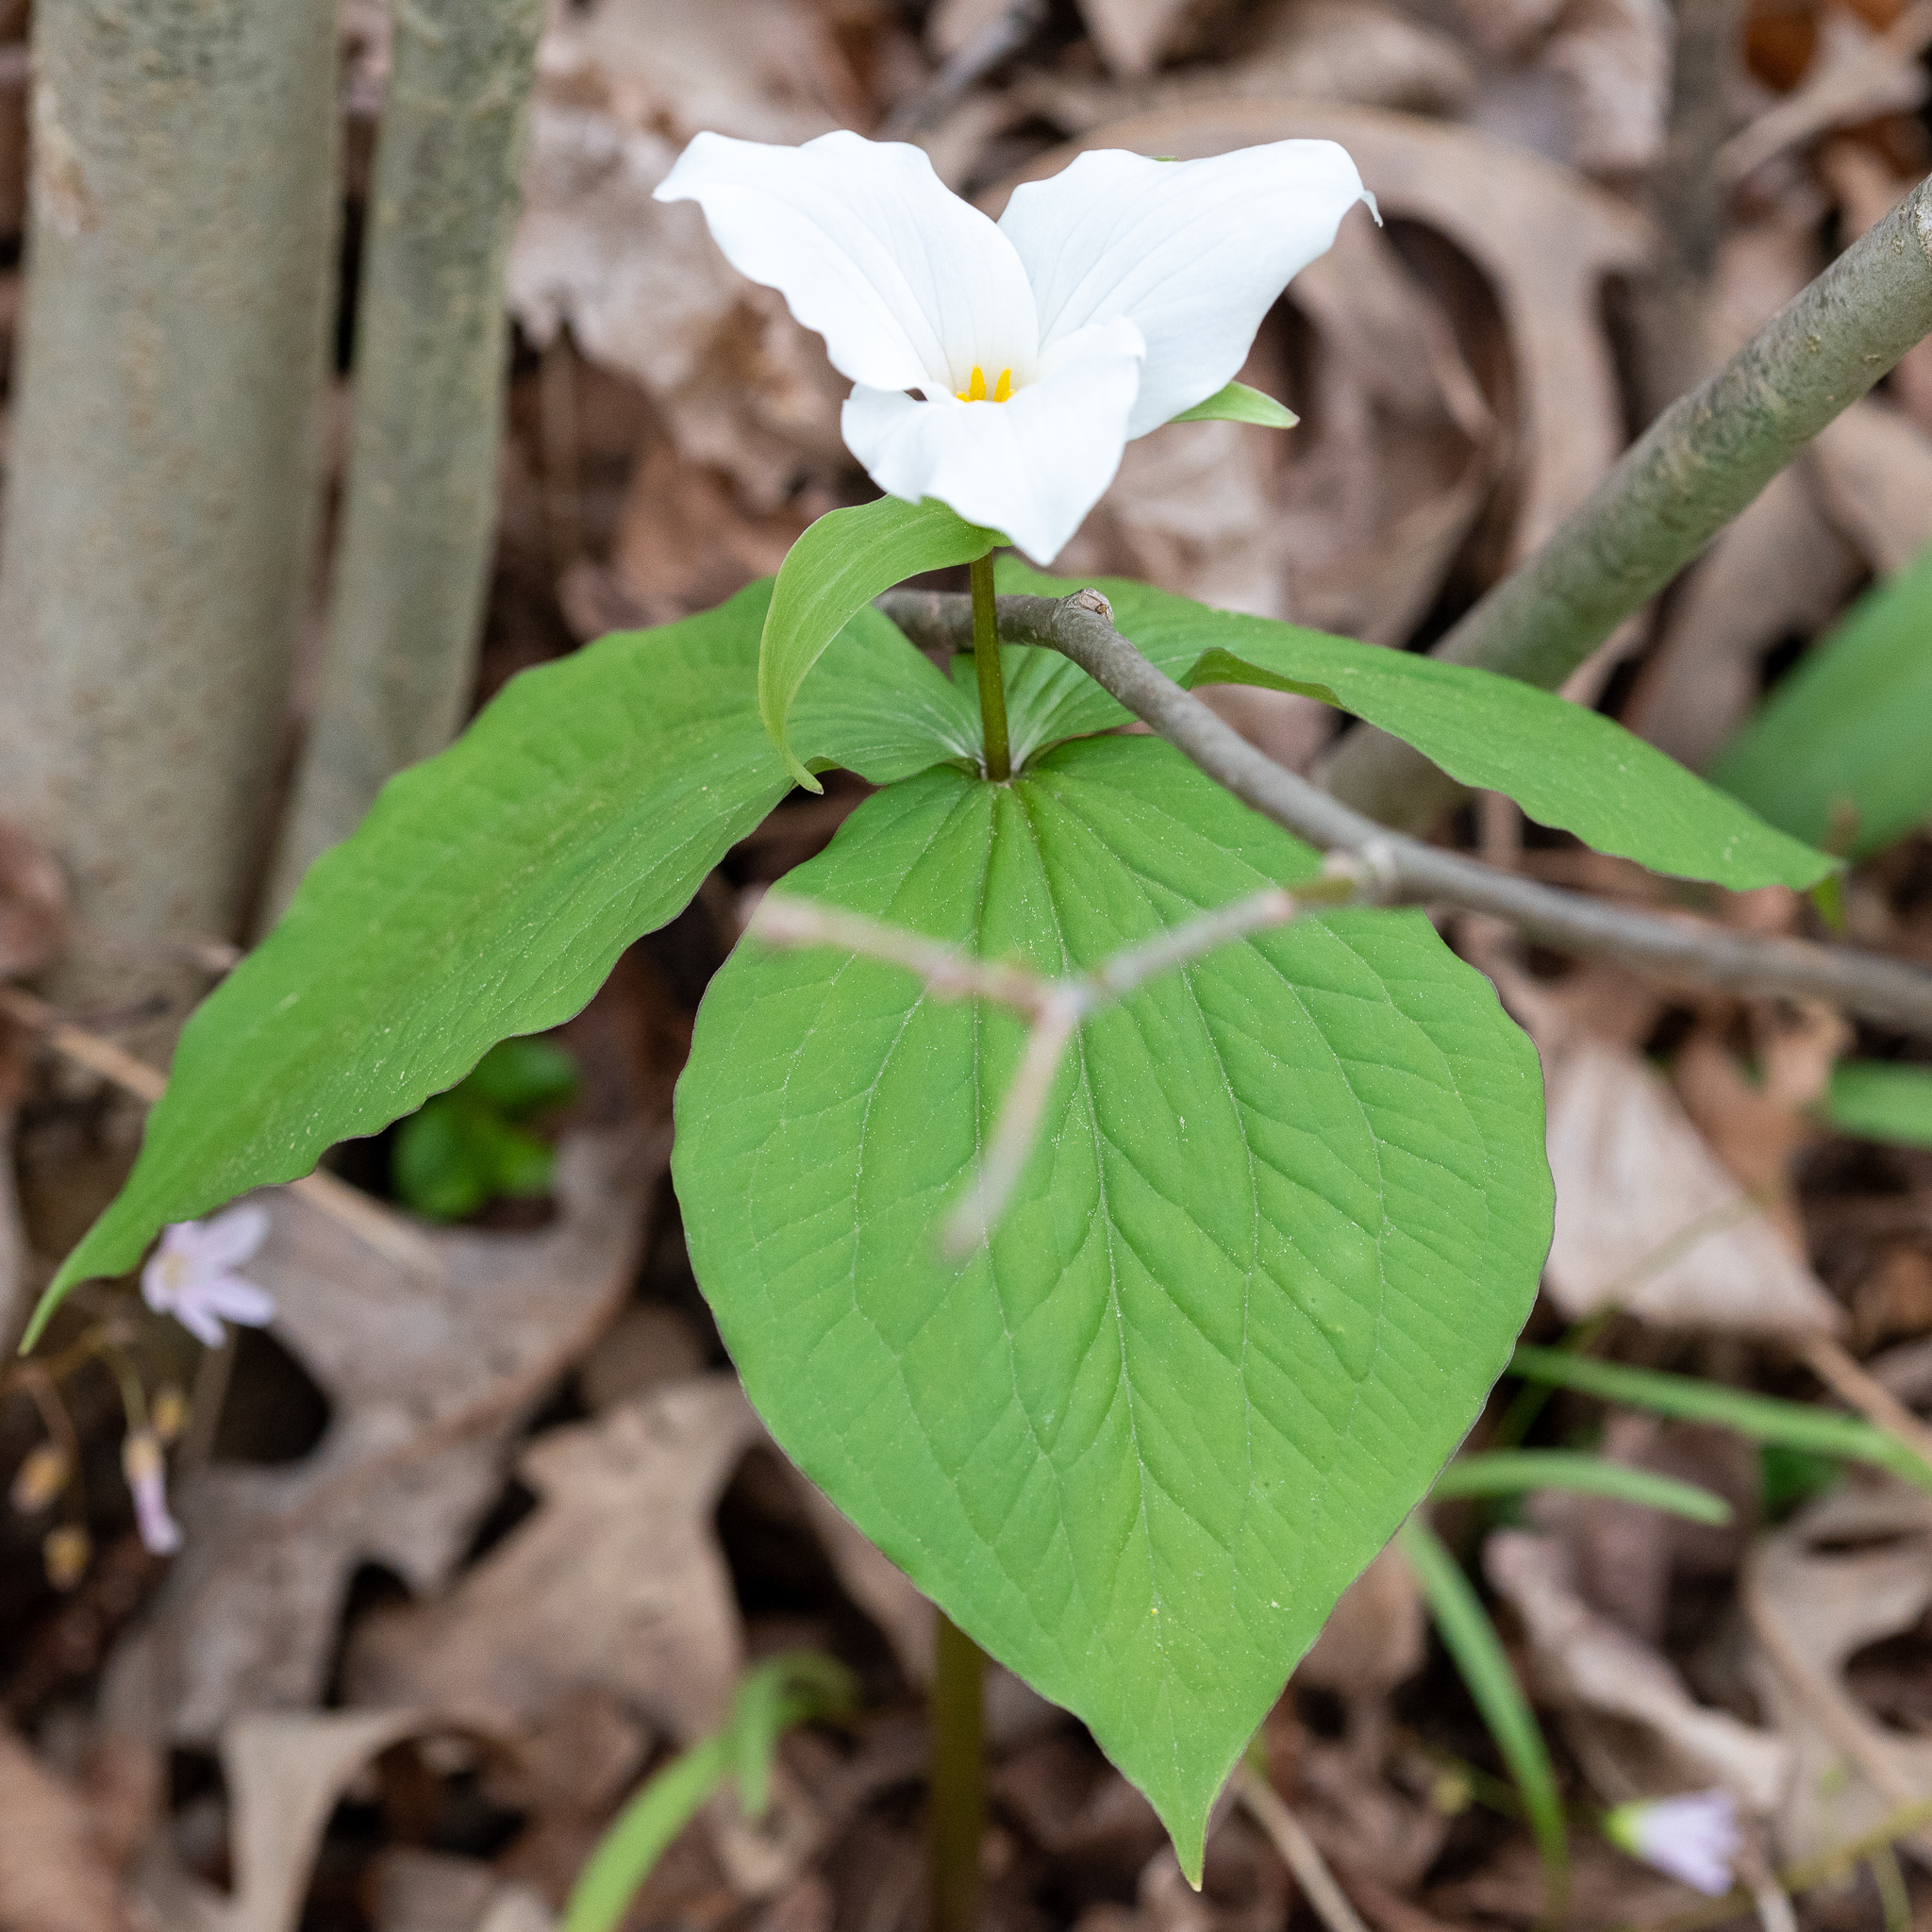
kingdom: Plantae
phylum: Tracheophyta
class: Liliopsida
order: Liliales
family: Melanthiaceae
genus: Trillium
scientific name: Trillium grandiflorum
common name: Great white trillium
